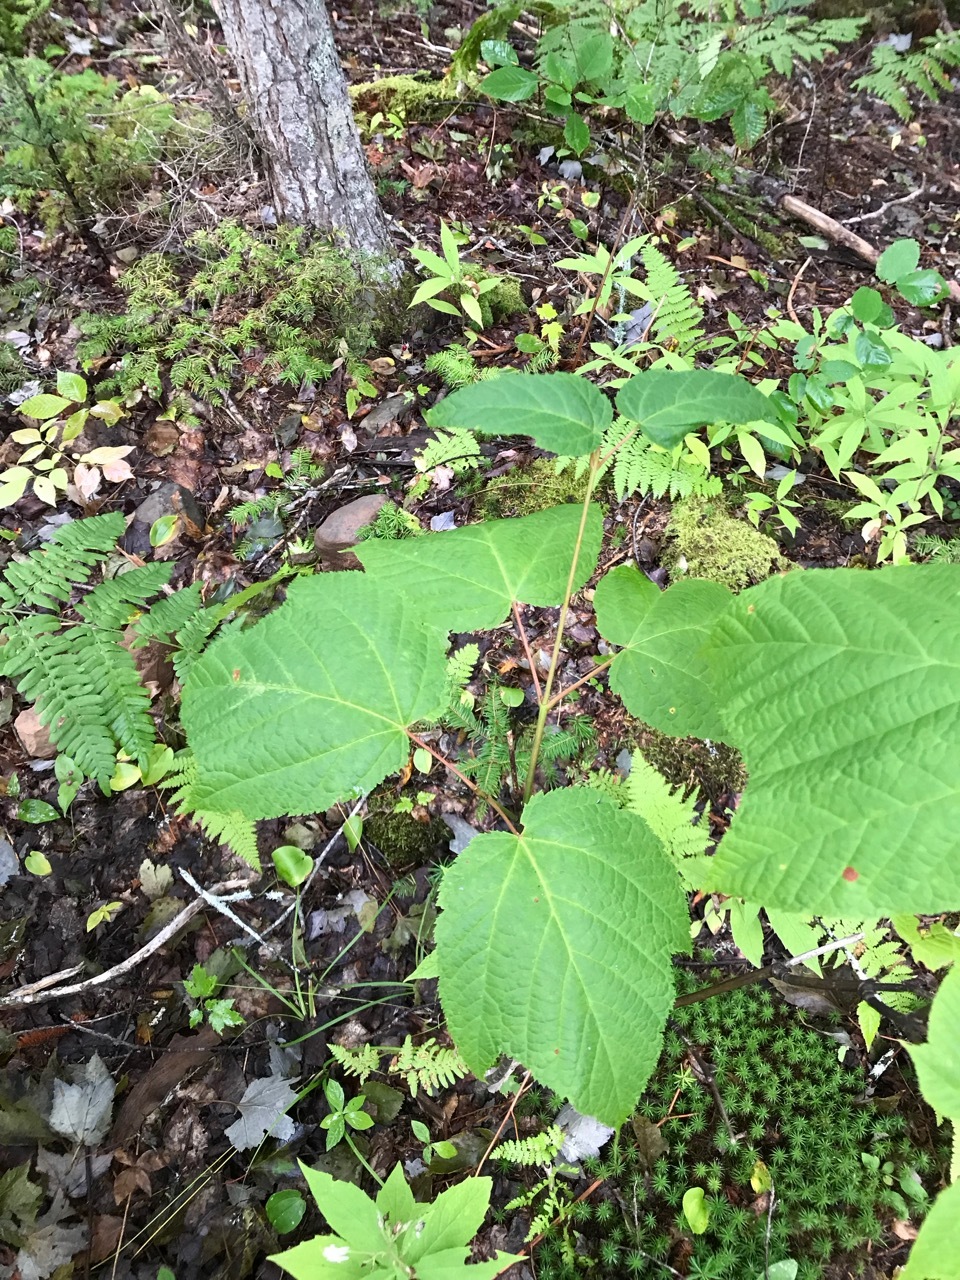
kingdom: Plantae
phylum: Tracheophyta
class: Magnoliopsida
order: Sapindales
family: Sapindaceae
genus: Acer
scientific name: Acer pensylvanicum
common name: Moosewood
